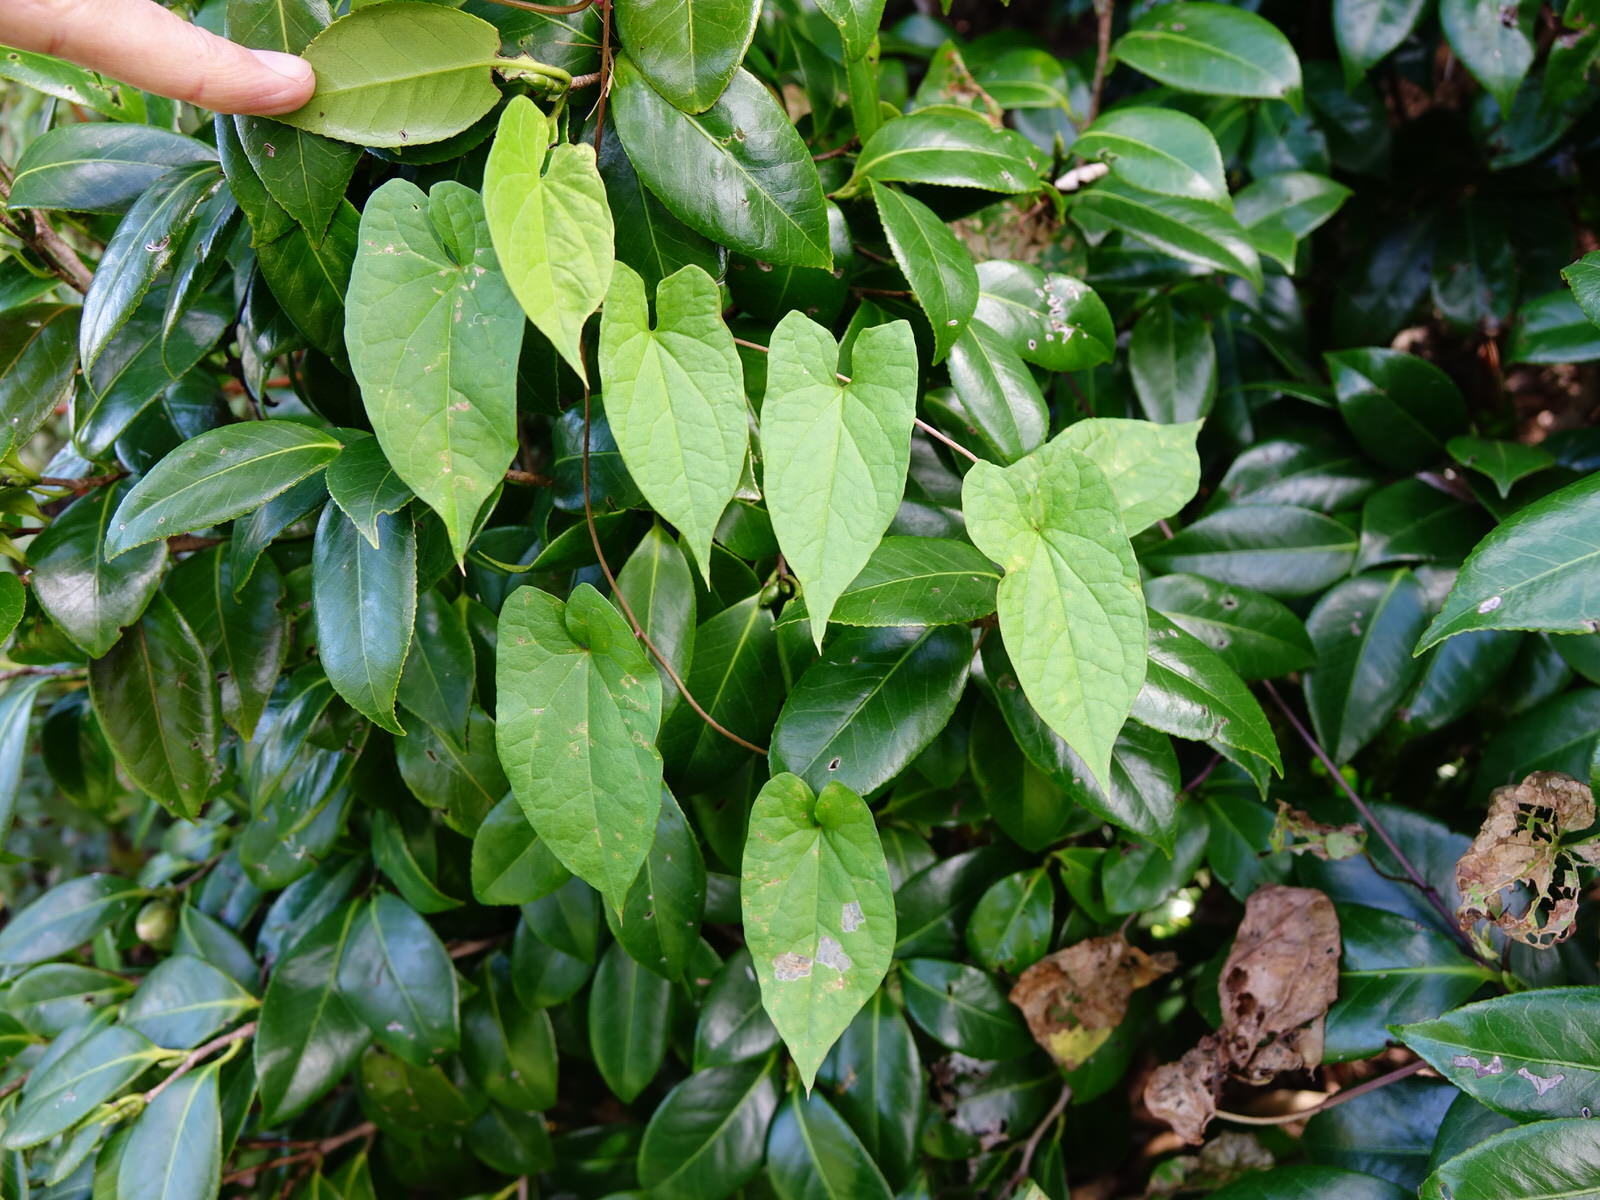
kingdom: Plantae
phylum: Tracheophyta
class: Magnoliopsida
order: Solanales
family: Convolvulaceae
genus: Calystegia
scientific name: Calystegia silvatica
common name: Large bindweed
